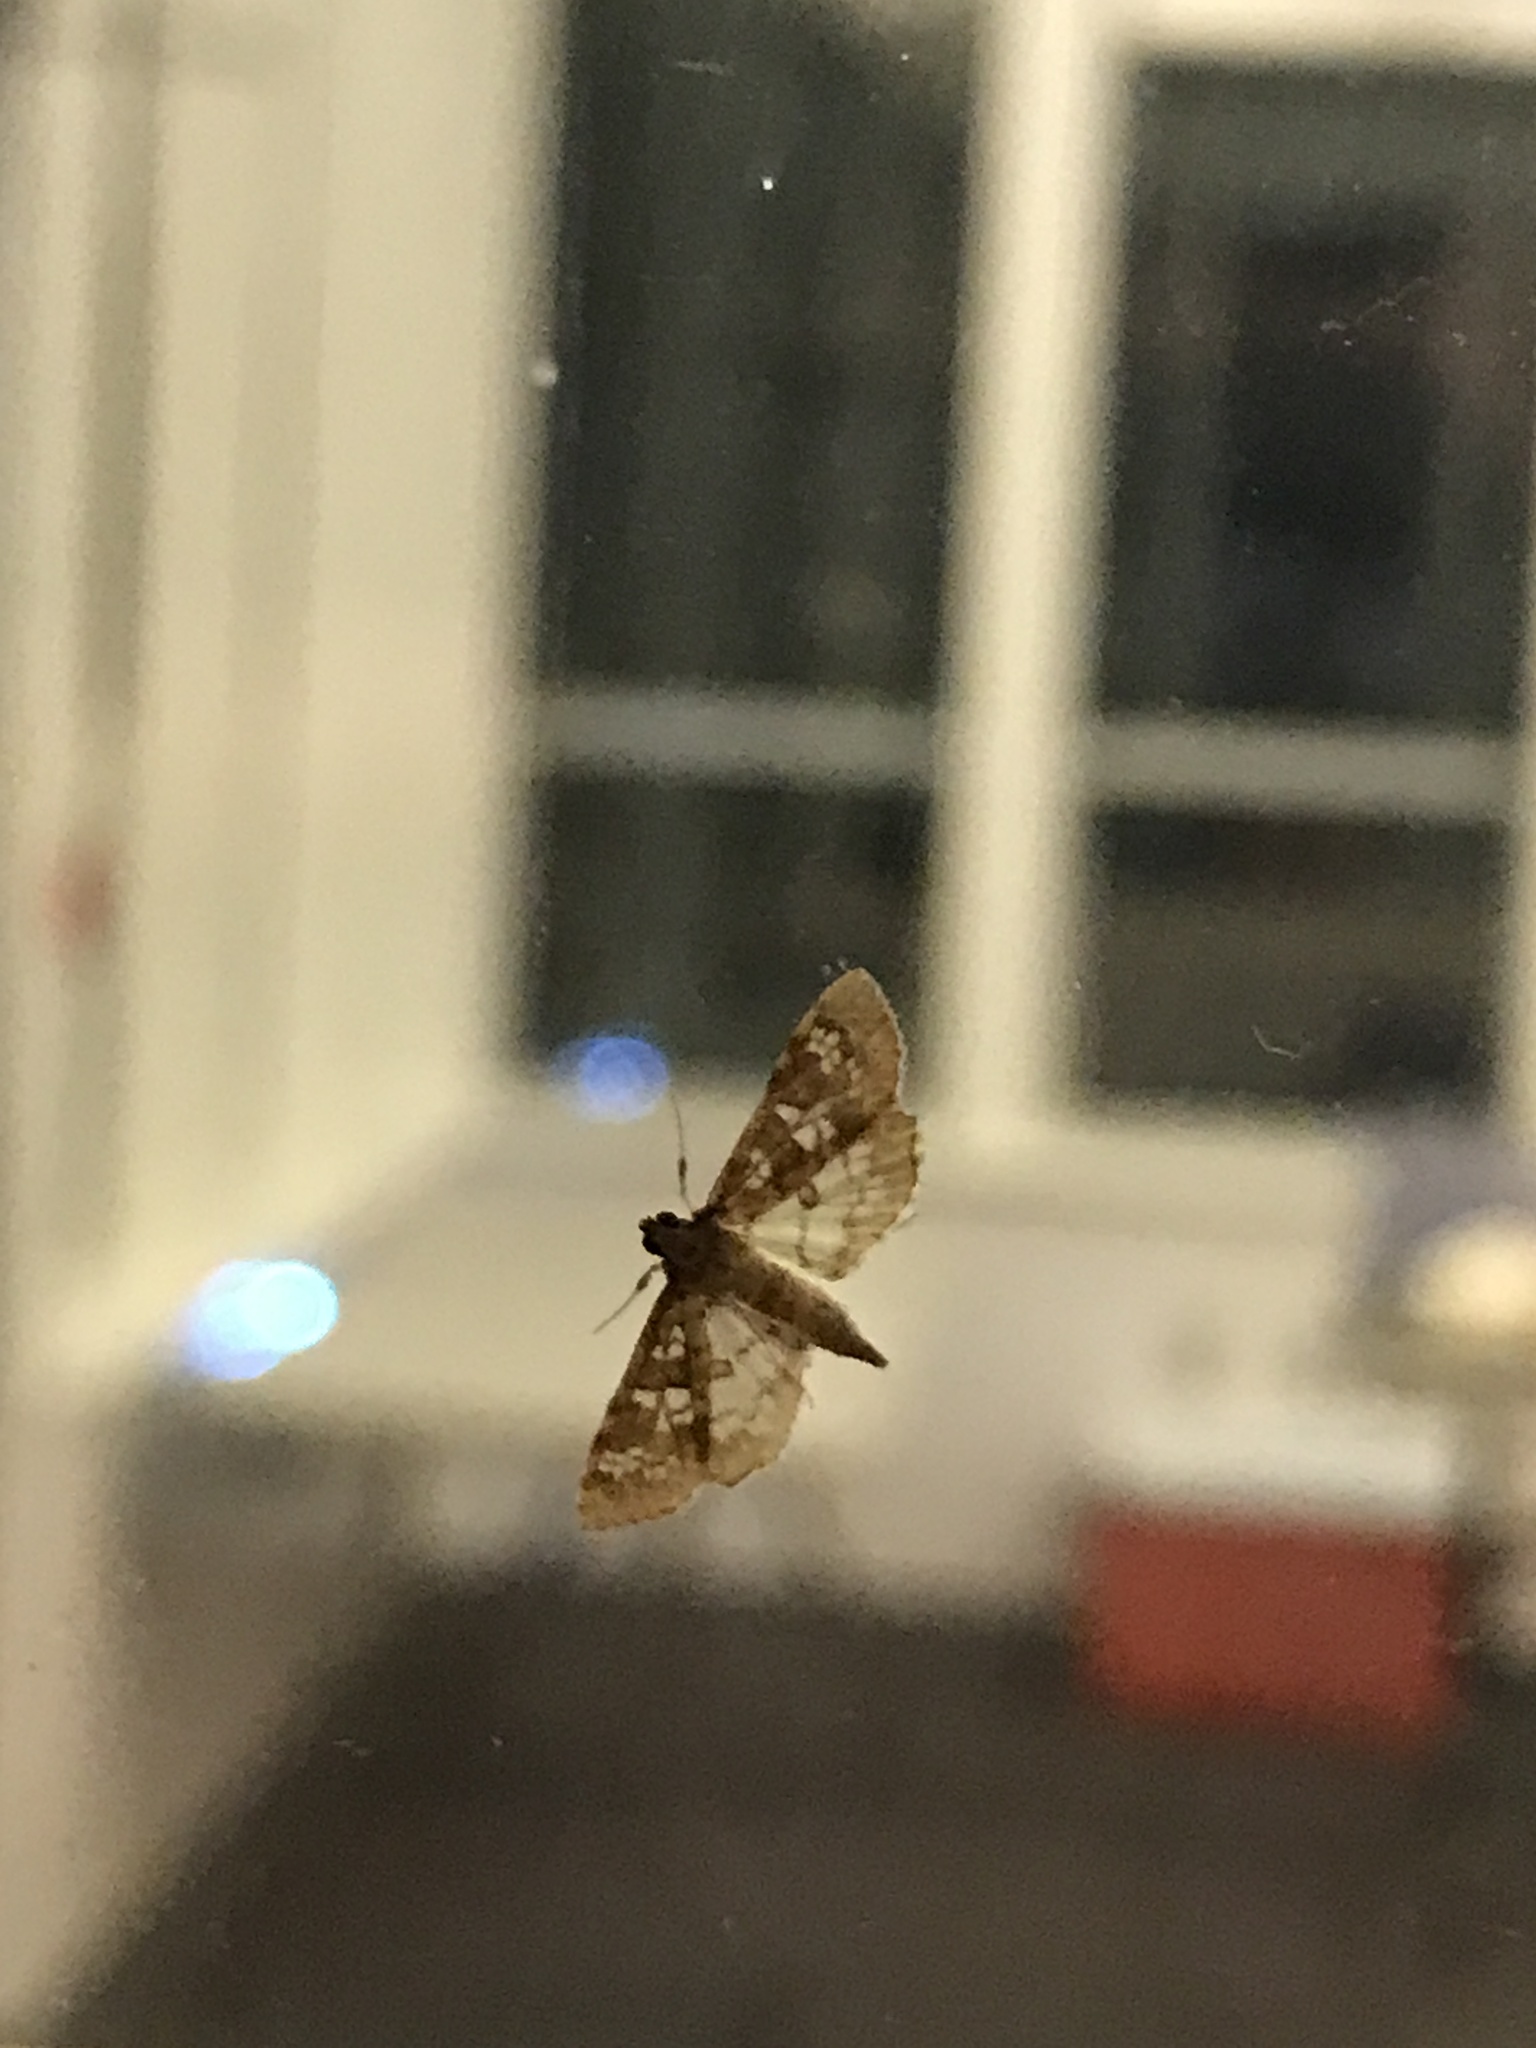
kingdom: Animalia
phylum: Arthropoda
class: Insecta
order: Lepidoptera
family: Crambidae
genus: Samea
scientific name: Samea multiplicalis
